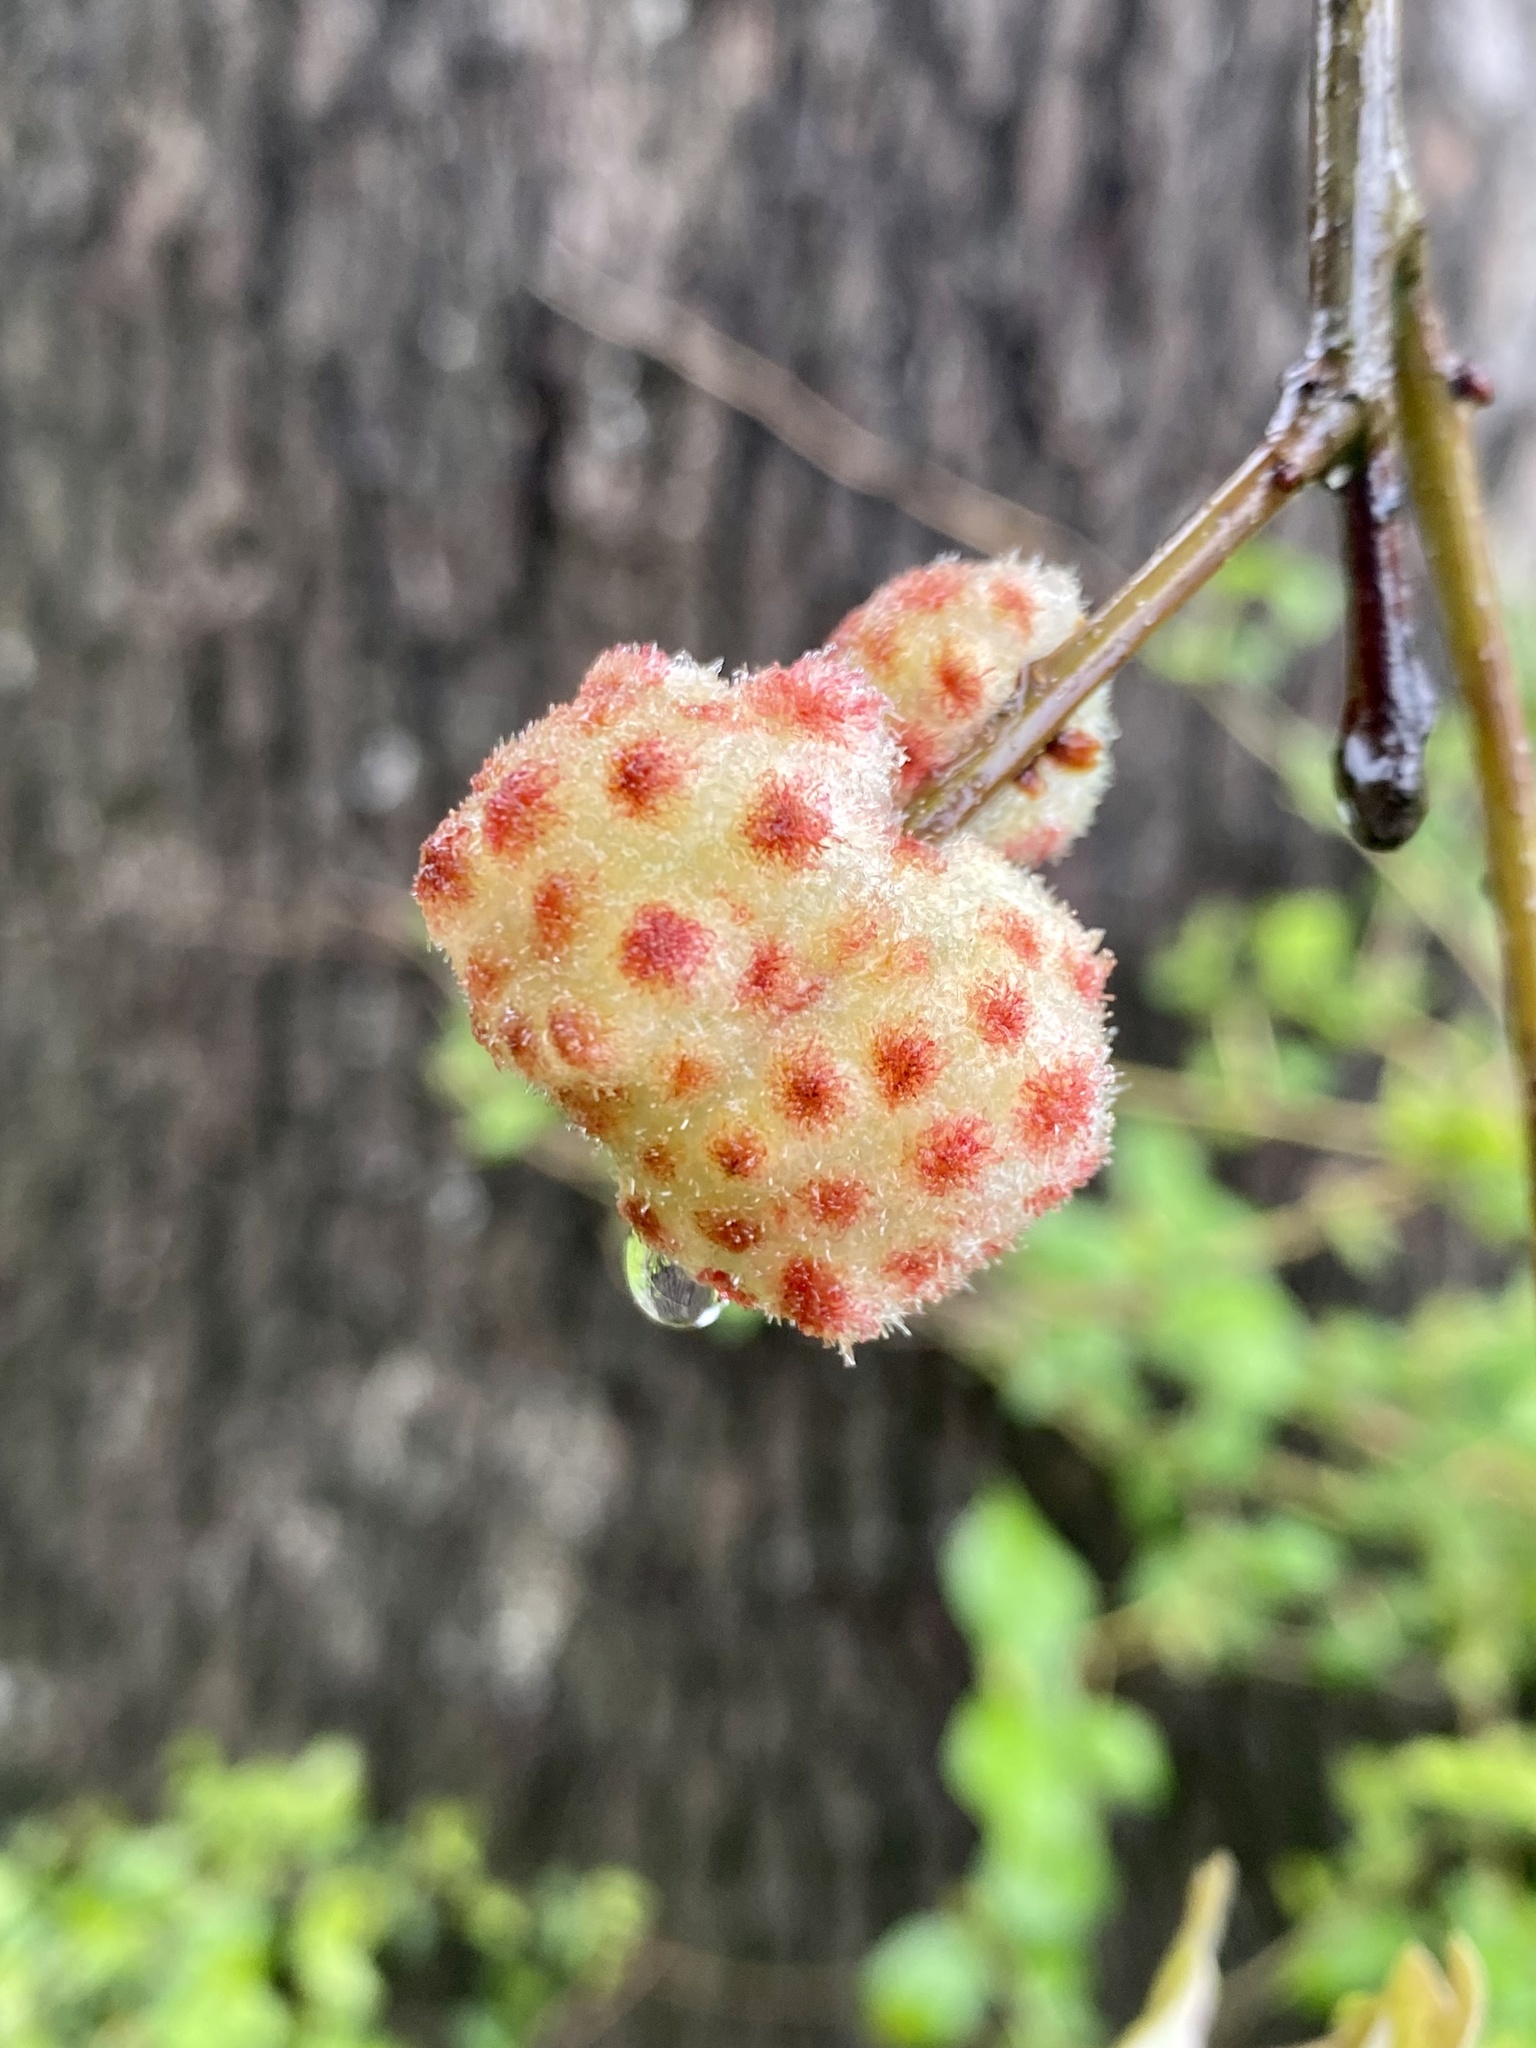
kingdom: Animalia
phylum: Arthropoda
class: Insecta
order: Hymenoptera
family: Cynipidae
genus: Callirhytis
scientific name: Callirhytis
